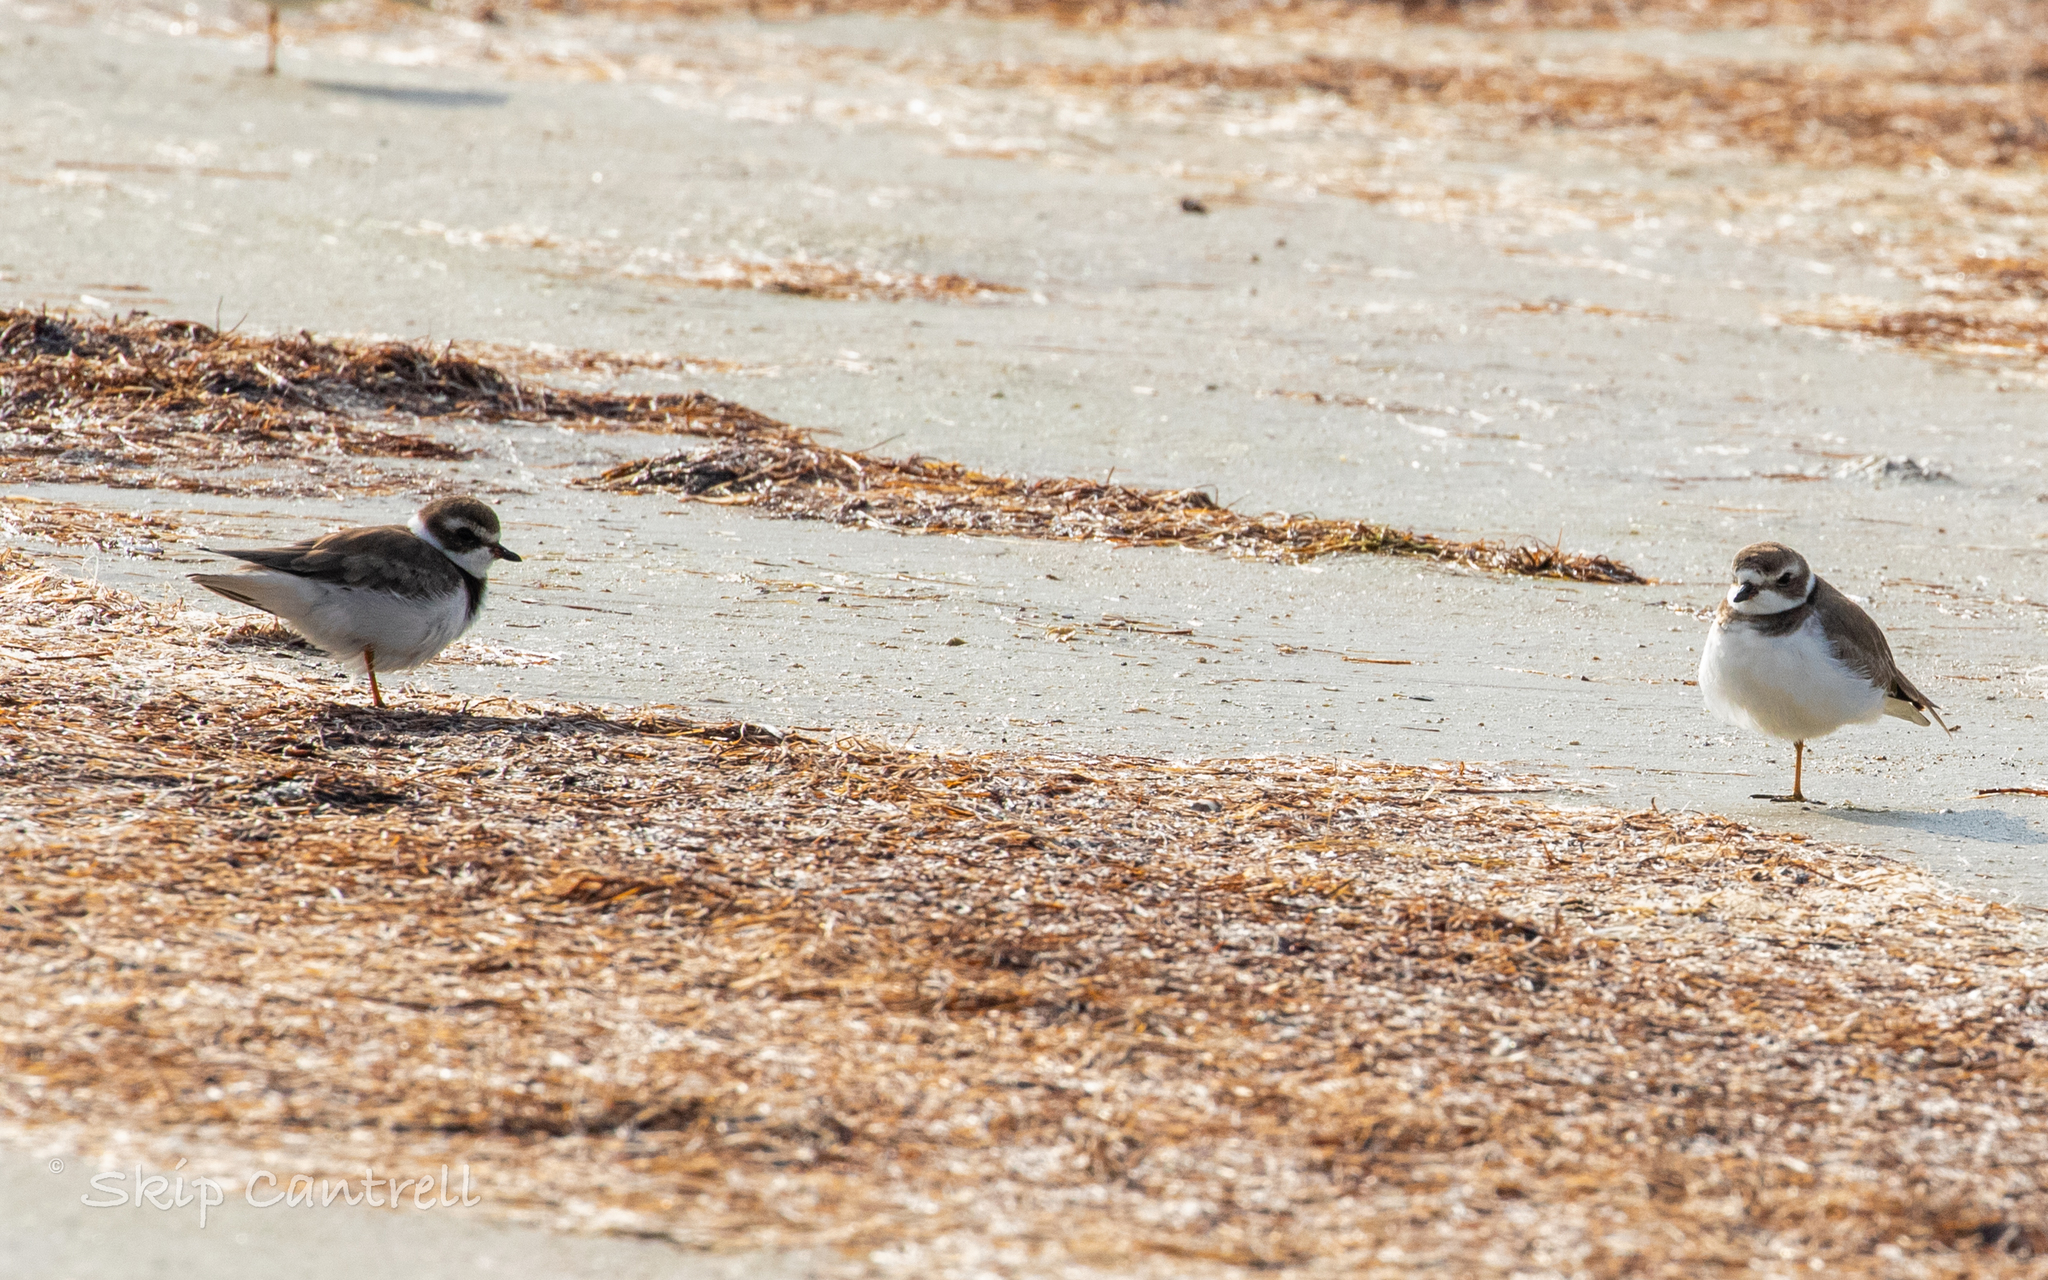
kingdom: Animalia
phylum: Chordata
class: Aves
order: Charadriiformes
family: Charadriidae
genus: Charadrius
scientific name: Charadrius semipalmatus
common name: Semipalmated plover
